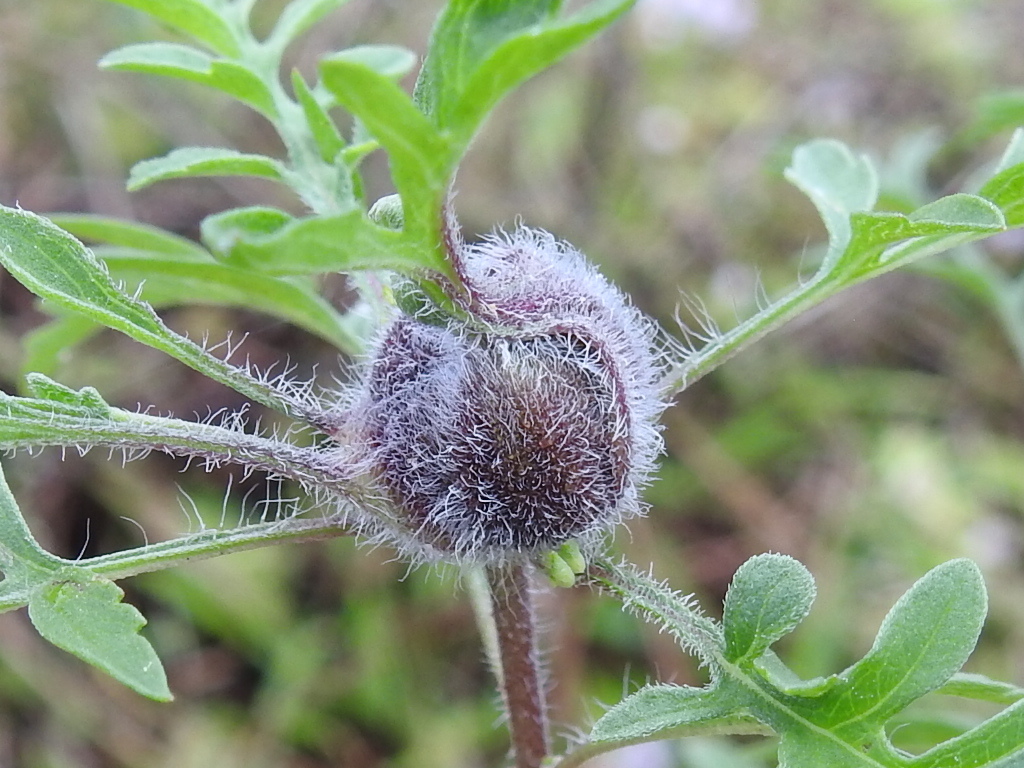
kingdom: Animalia
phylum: Arthropoda
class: Insecta
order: Diptera
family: Cecidomyiidae
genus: Asphondylia
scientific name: Asphondylia ambrosiae
